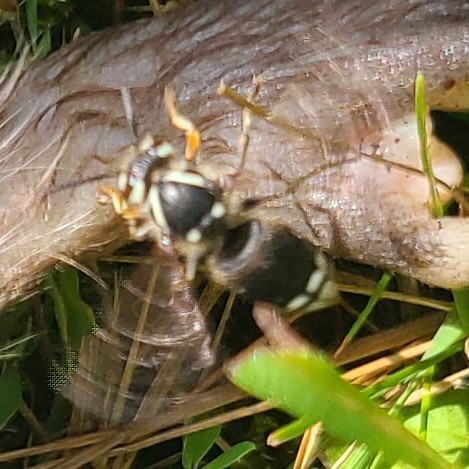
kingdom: Animalia
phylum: Arthropoda
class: Insecta
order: Hymenoptera
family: Vespidae
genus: Dolichovespula
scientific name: Dolichovespula maculata
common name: Bald-faced hornet
